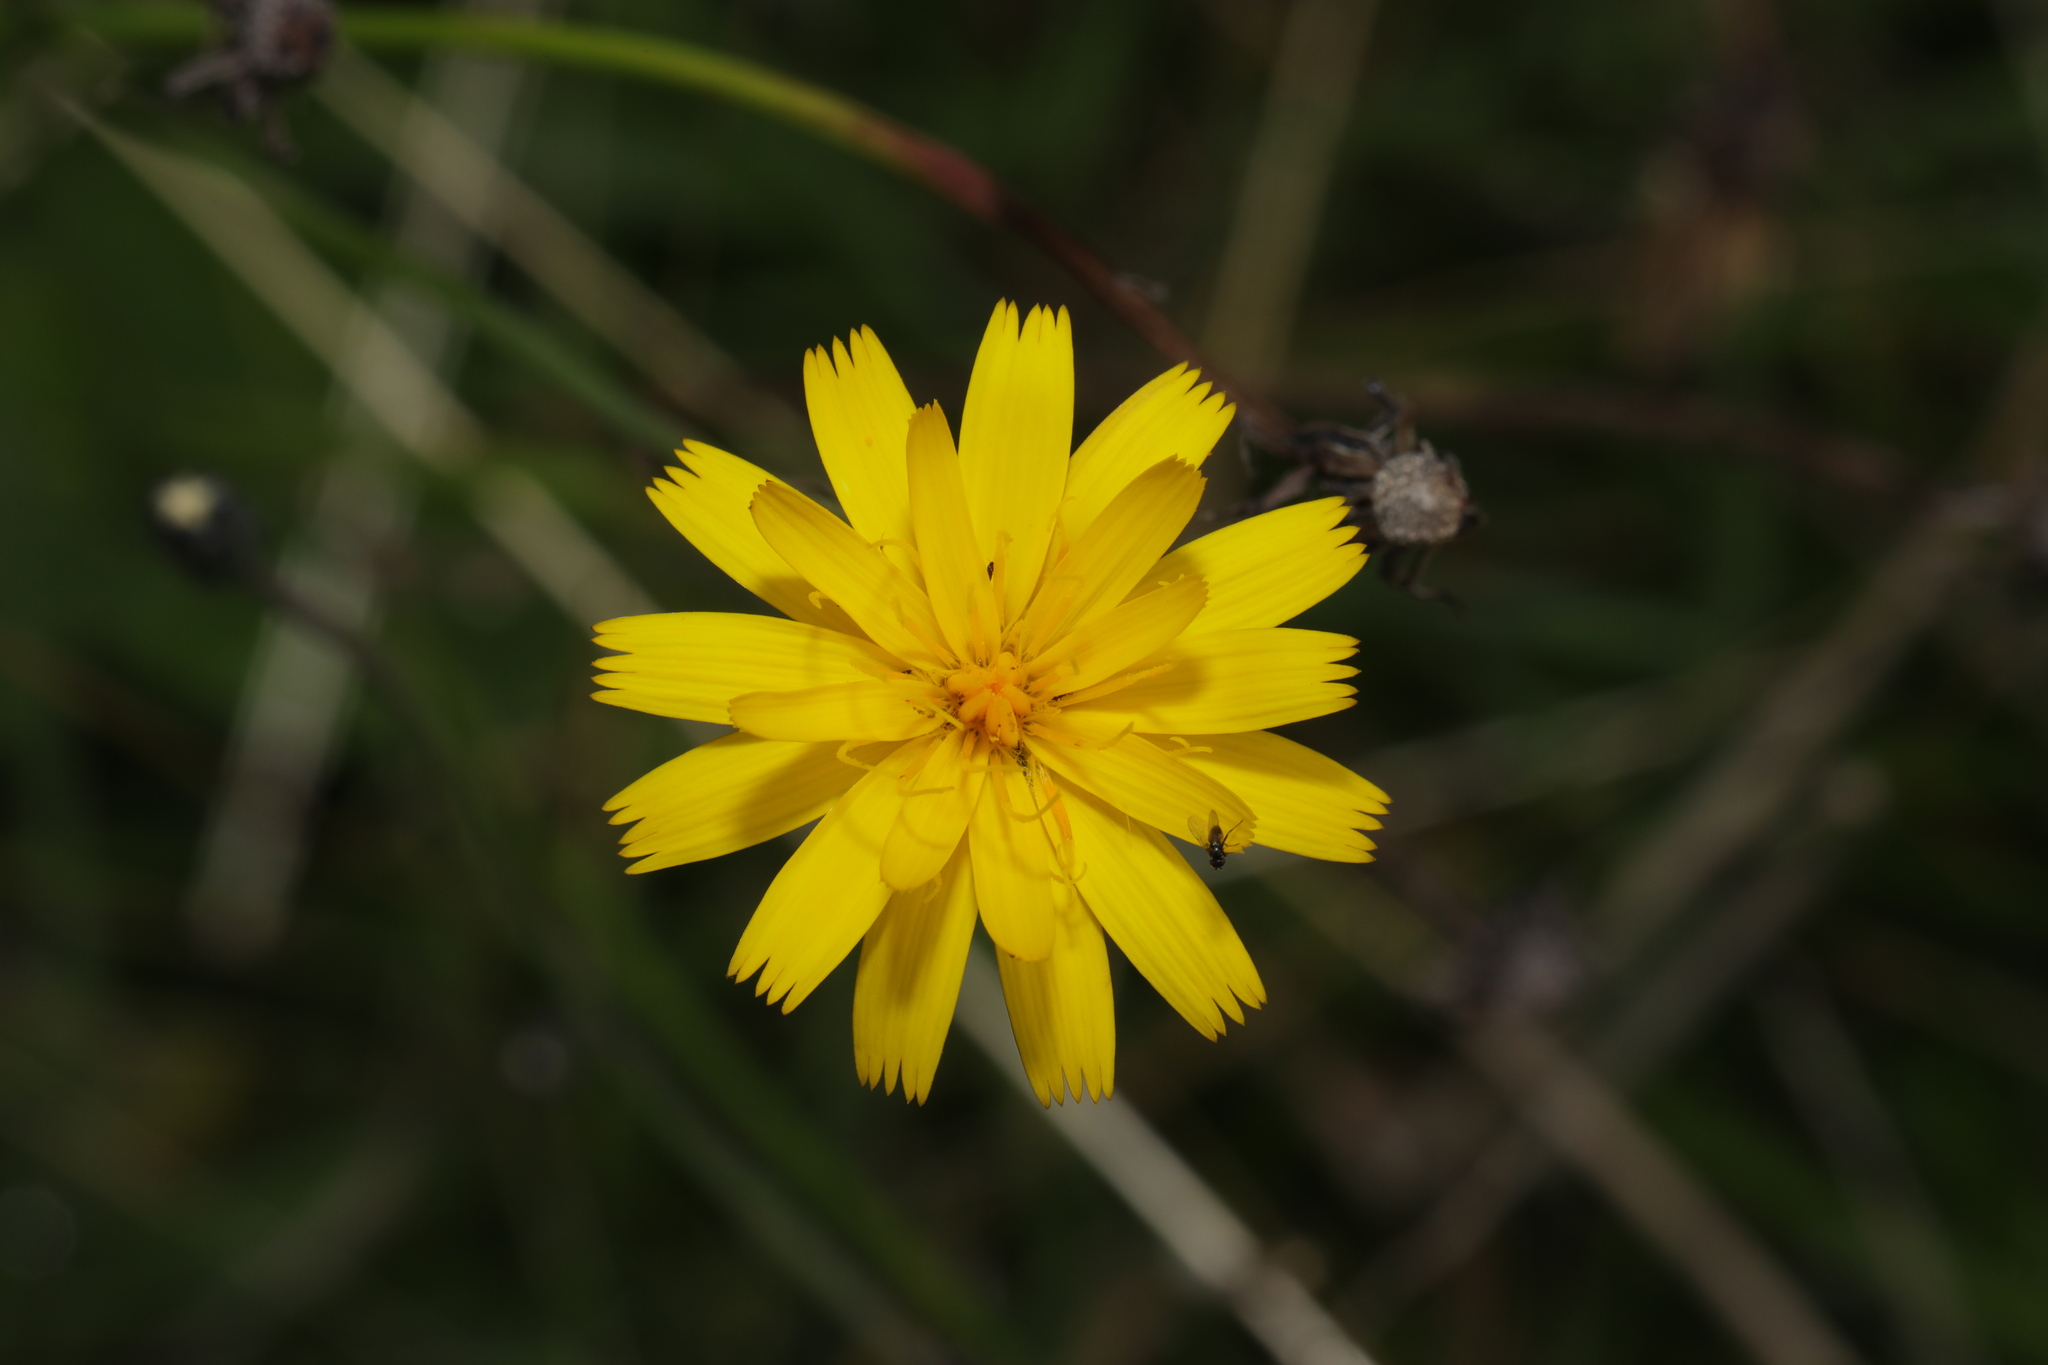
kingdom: Plantae
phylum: Tracheophyta
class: Magnoliopsida
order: Asterales
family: Asteraceae
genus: Hypochaeris
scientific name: Hypochaeris radicata
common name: Flatweed
